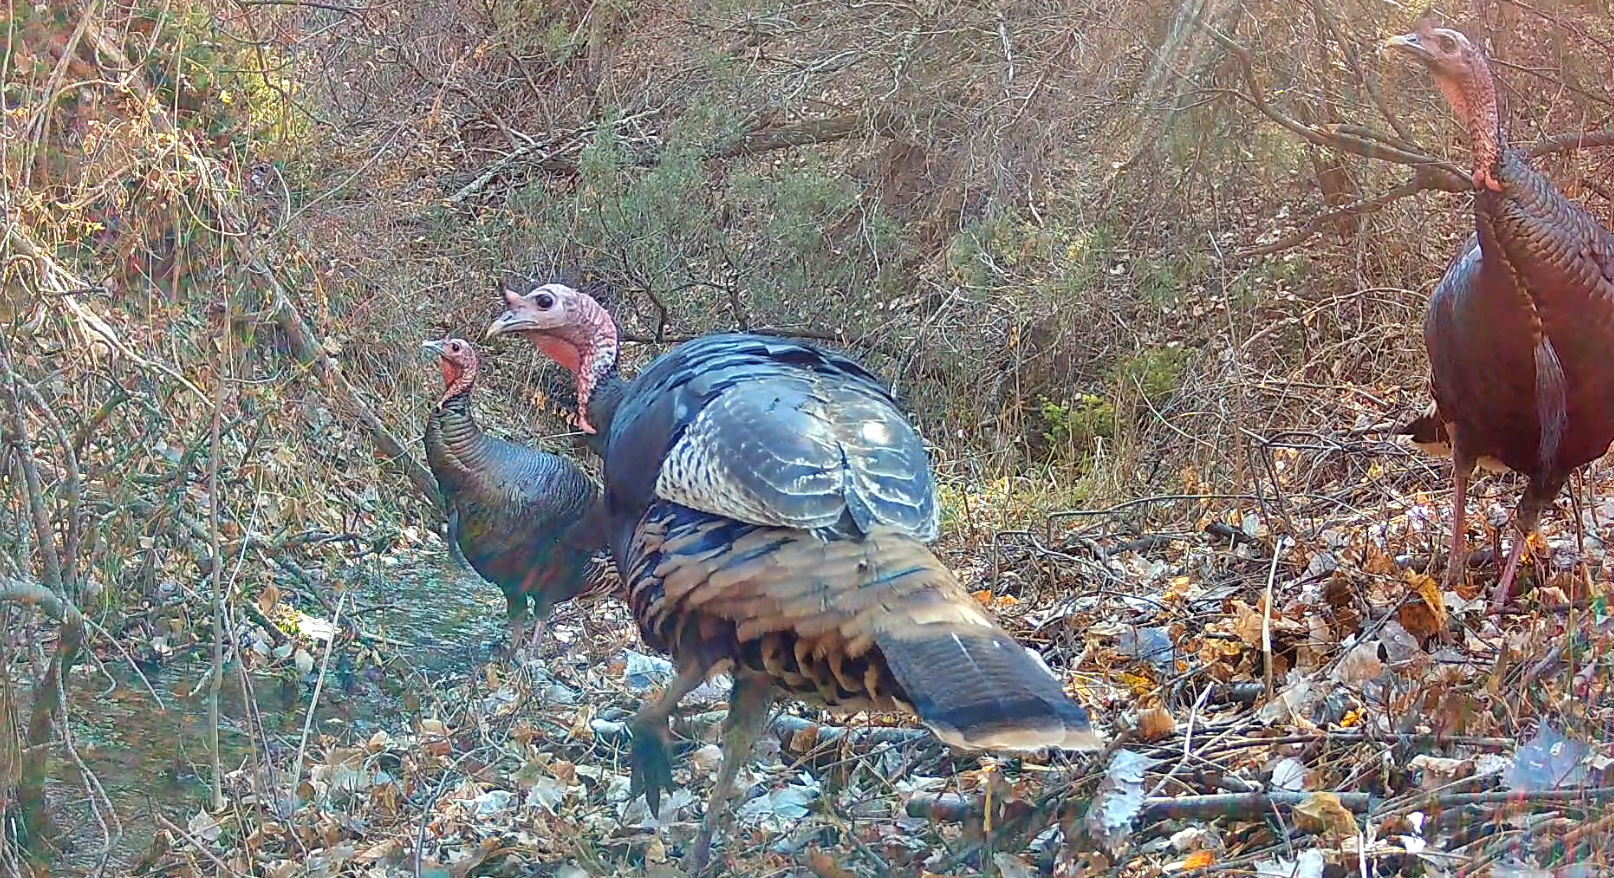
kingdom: Animalia
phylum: Chordata
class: Aves
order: Galliformes
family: Phasianidae
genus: Meleagris
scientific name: Meleagris gallopavo
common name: Wild turkey
